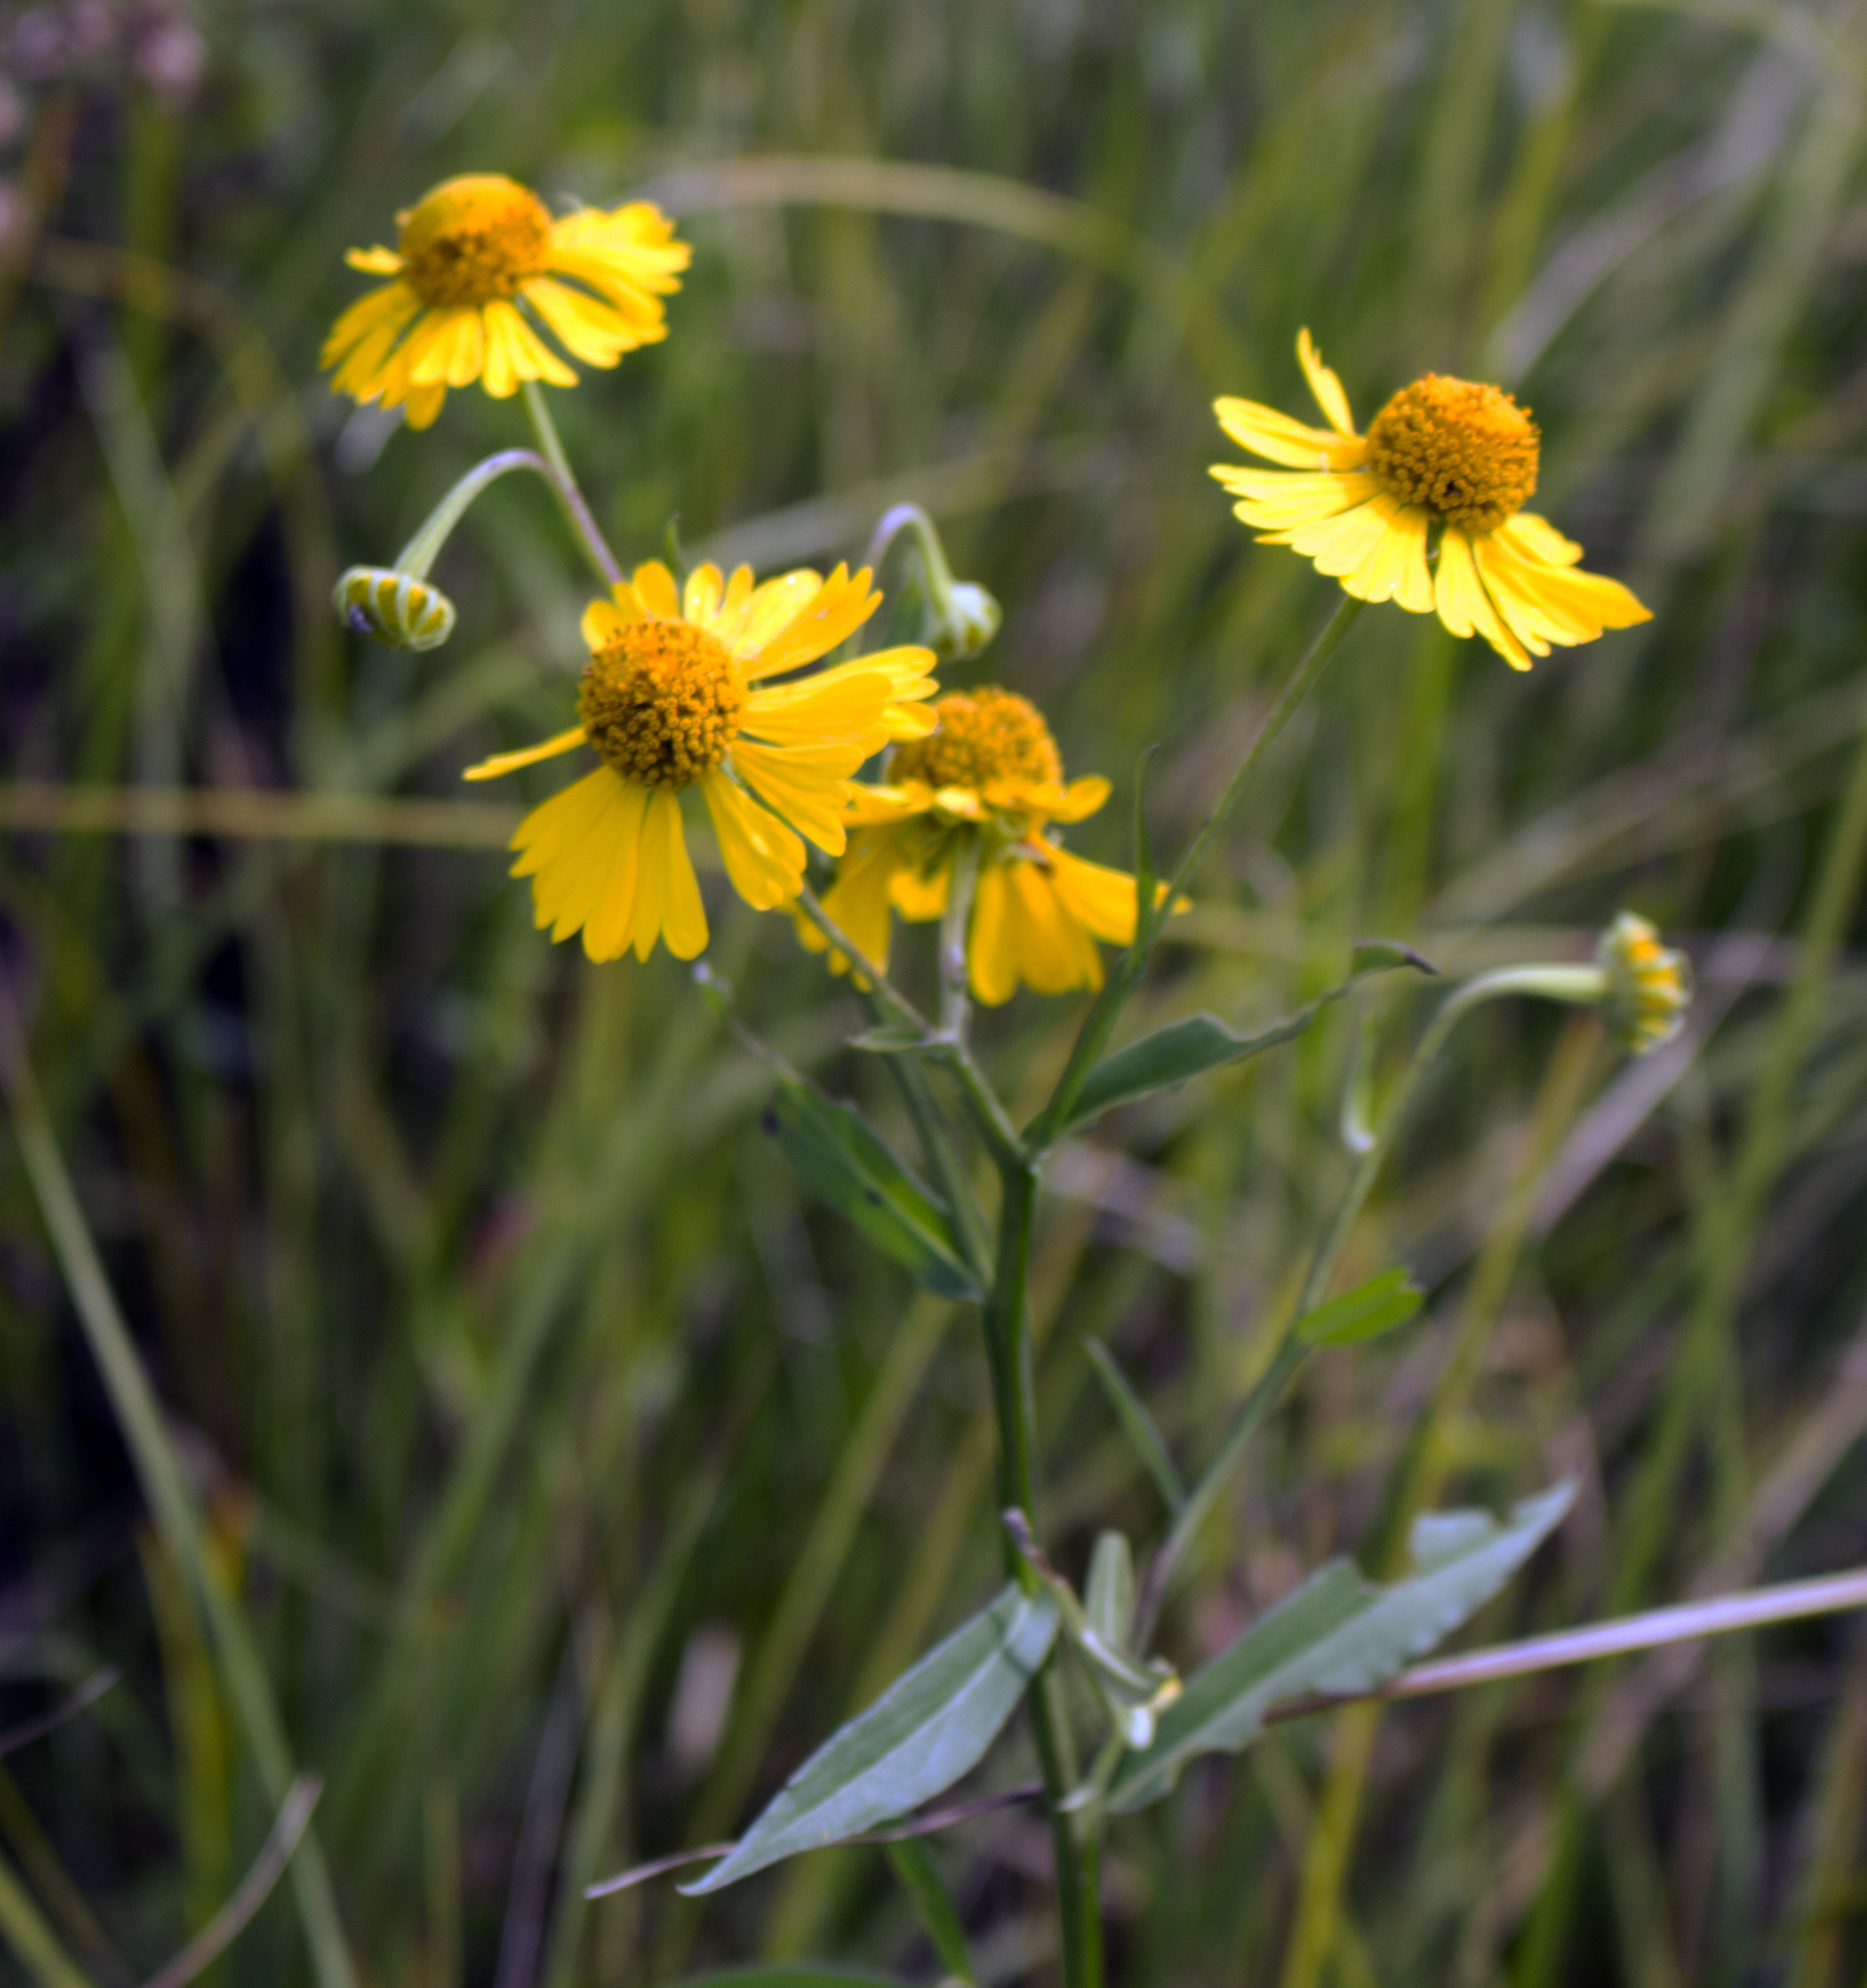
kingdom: Plantae
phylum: Tracheophyta
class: Magnoliopsida
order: Asterales
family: Asteraceae
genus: Helenium
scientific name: Helenium autumnale
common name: Sneezeweed
